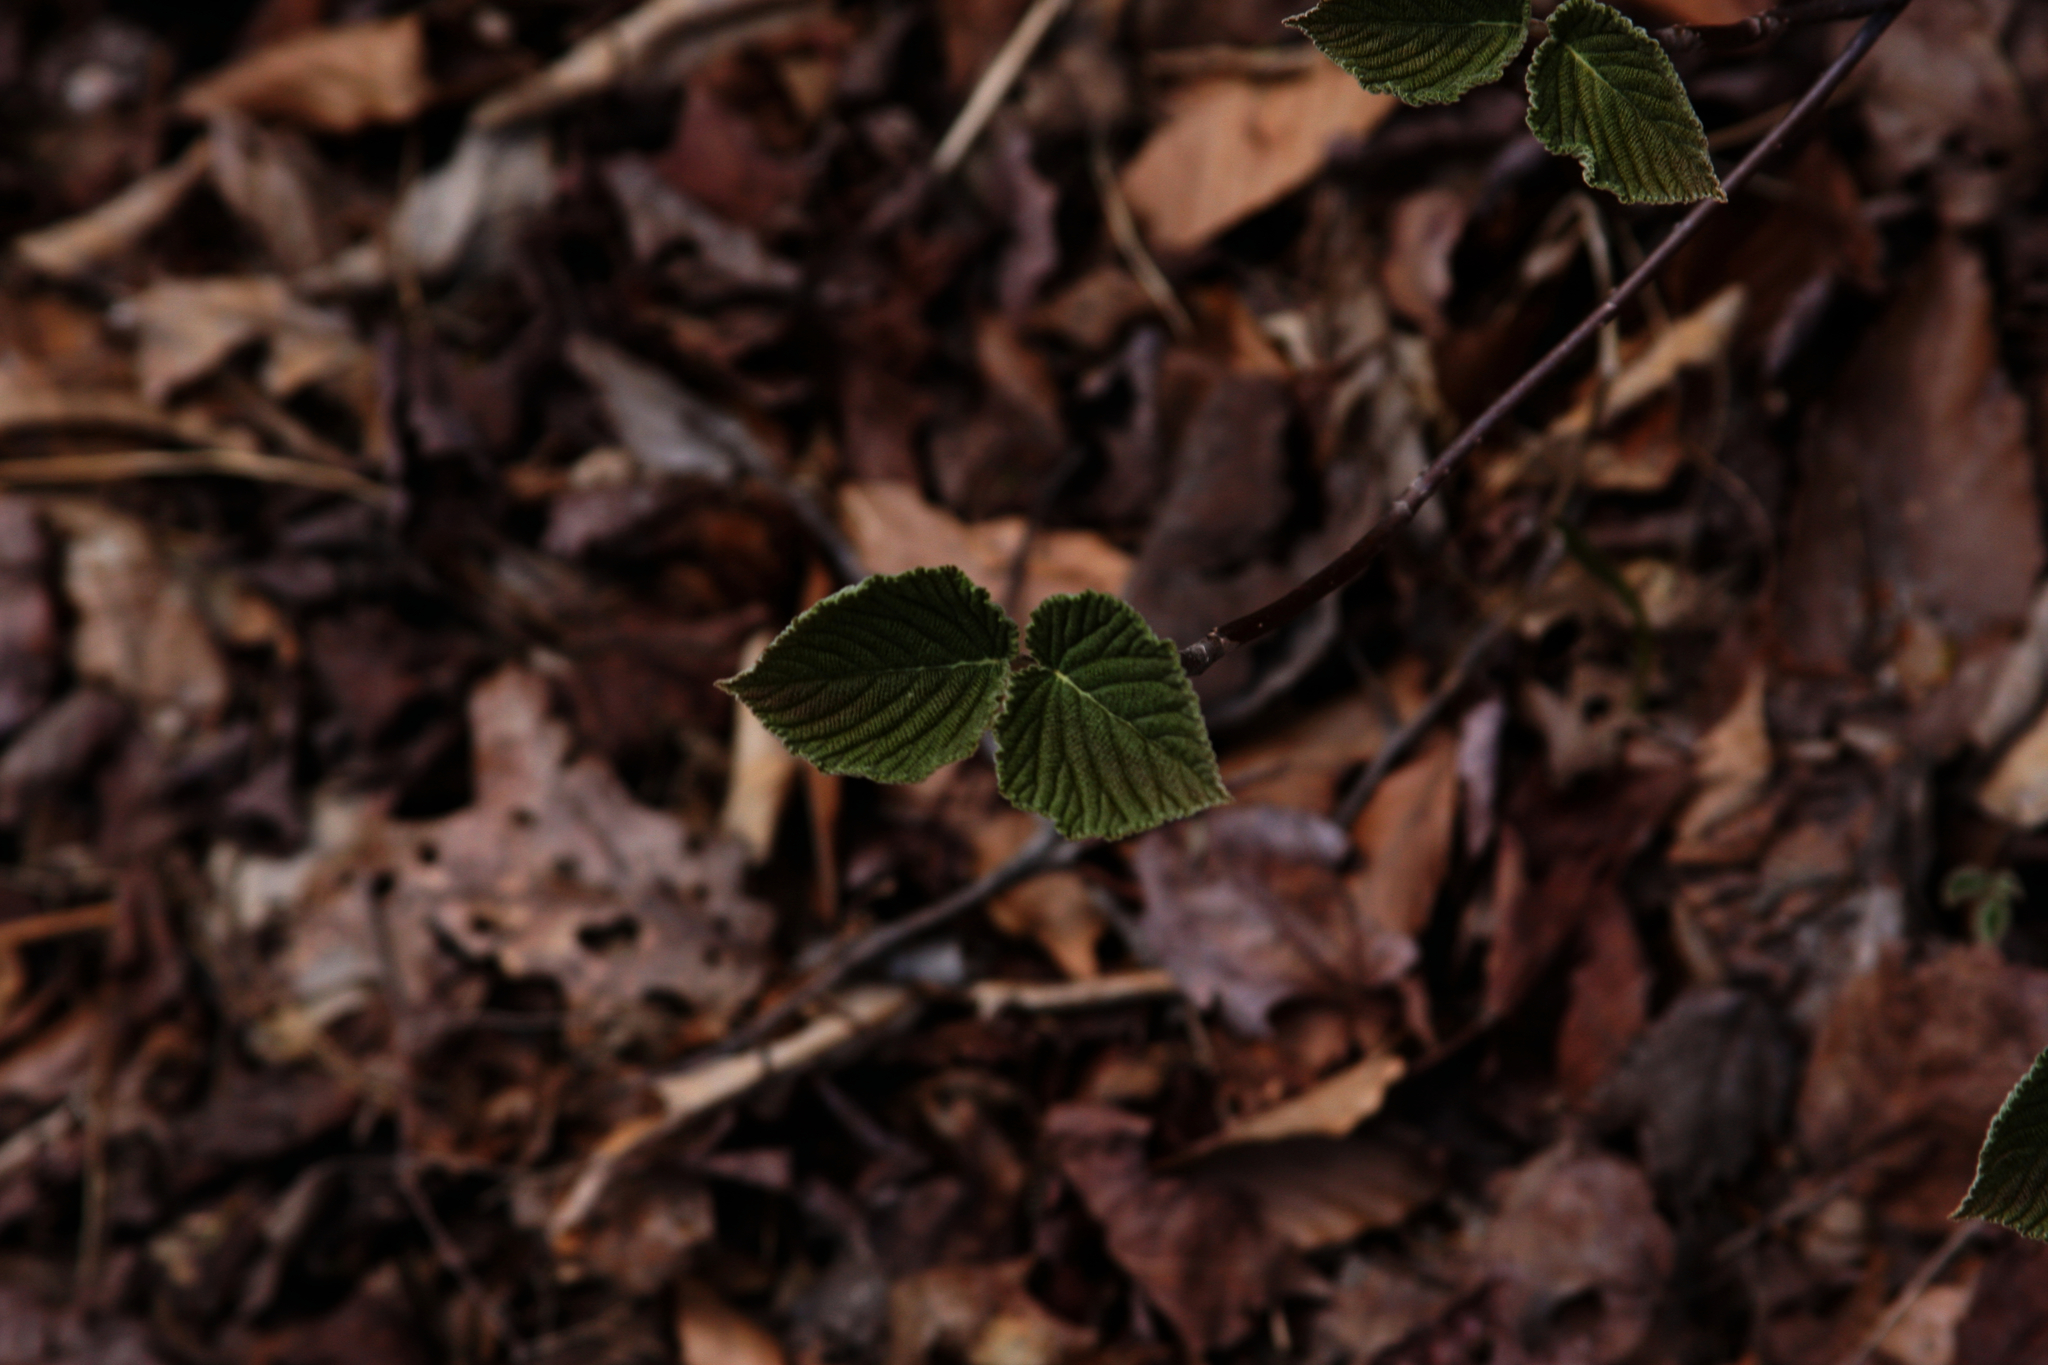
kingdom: Plantae
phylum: Tracheophyta
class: Magnoliopsida
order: Dipsacales
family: Viburnaceae
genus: Viburnum
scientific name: Viburnum lantanoides
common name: Hobblebush
